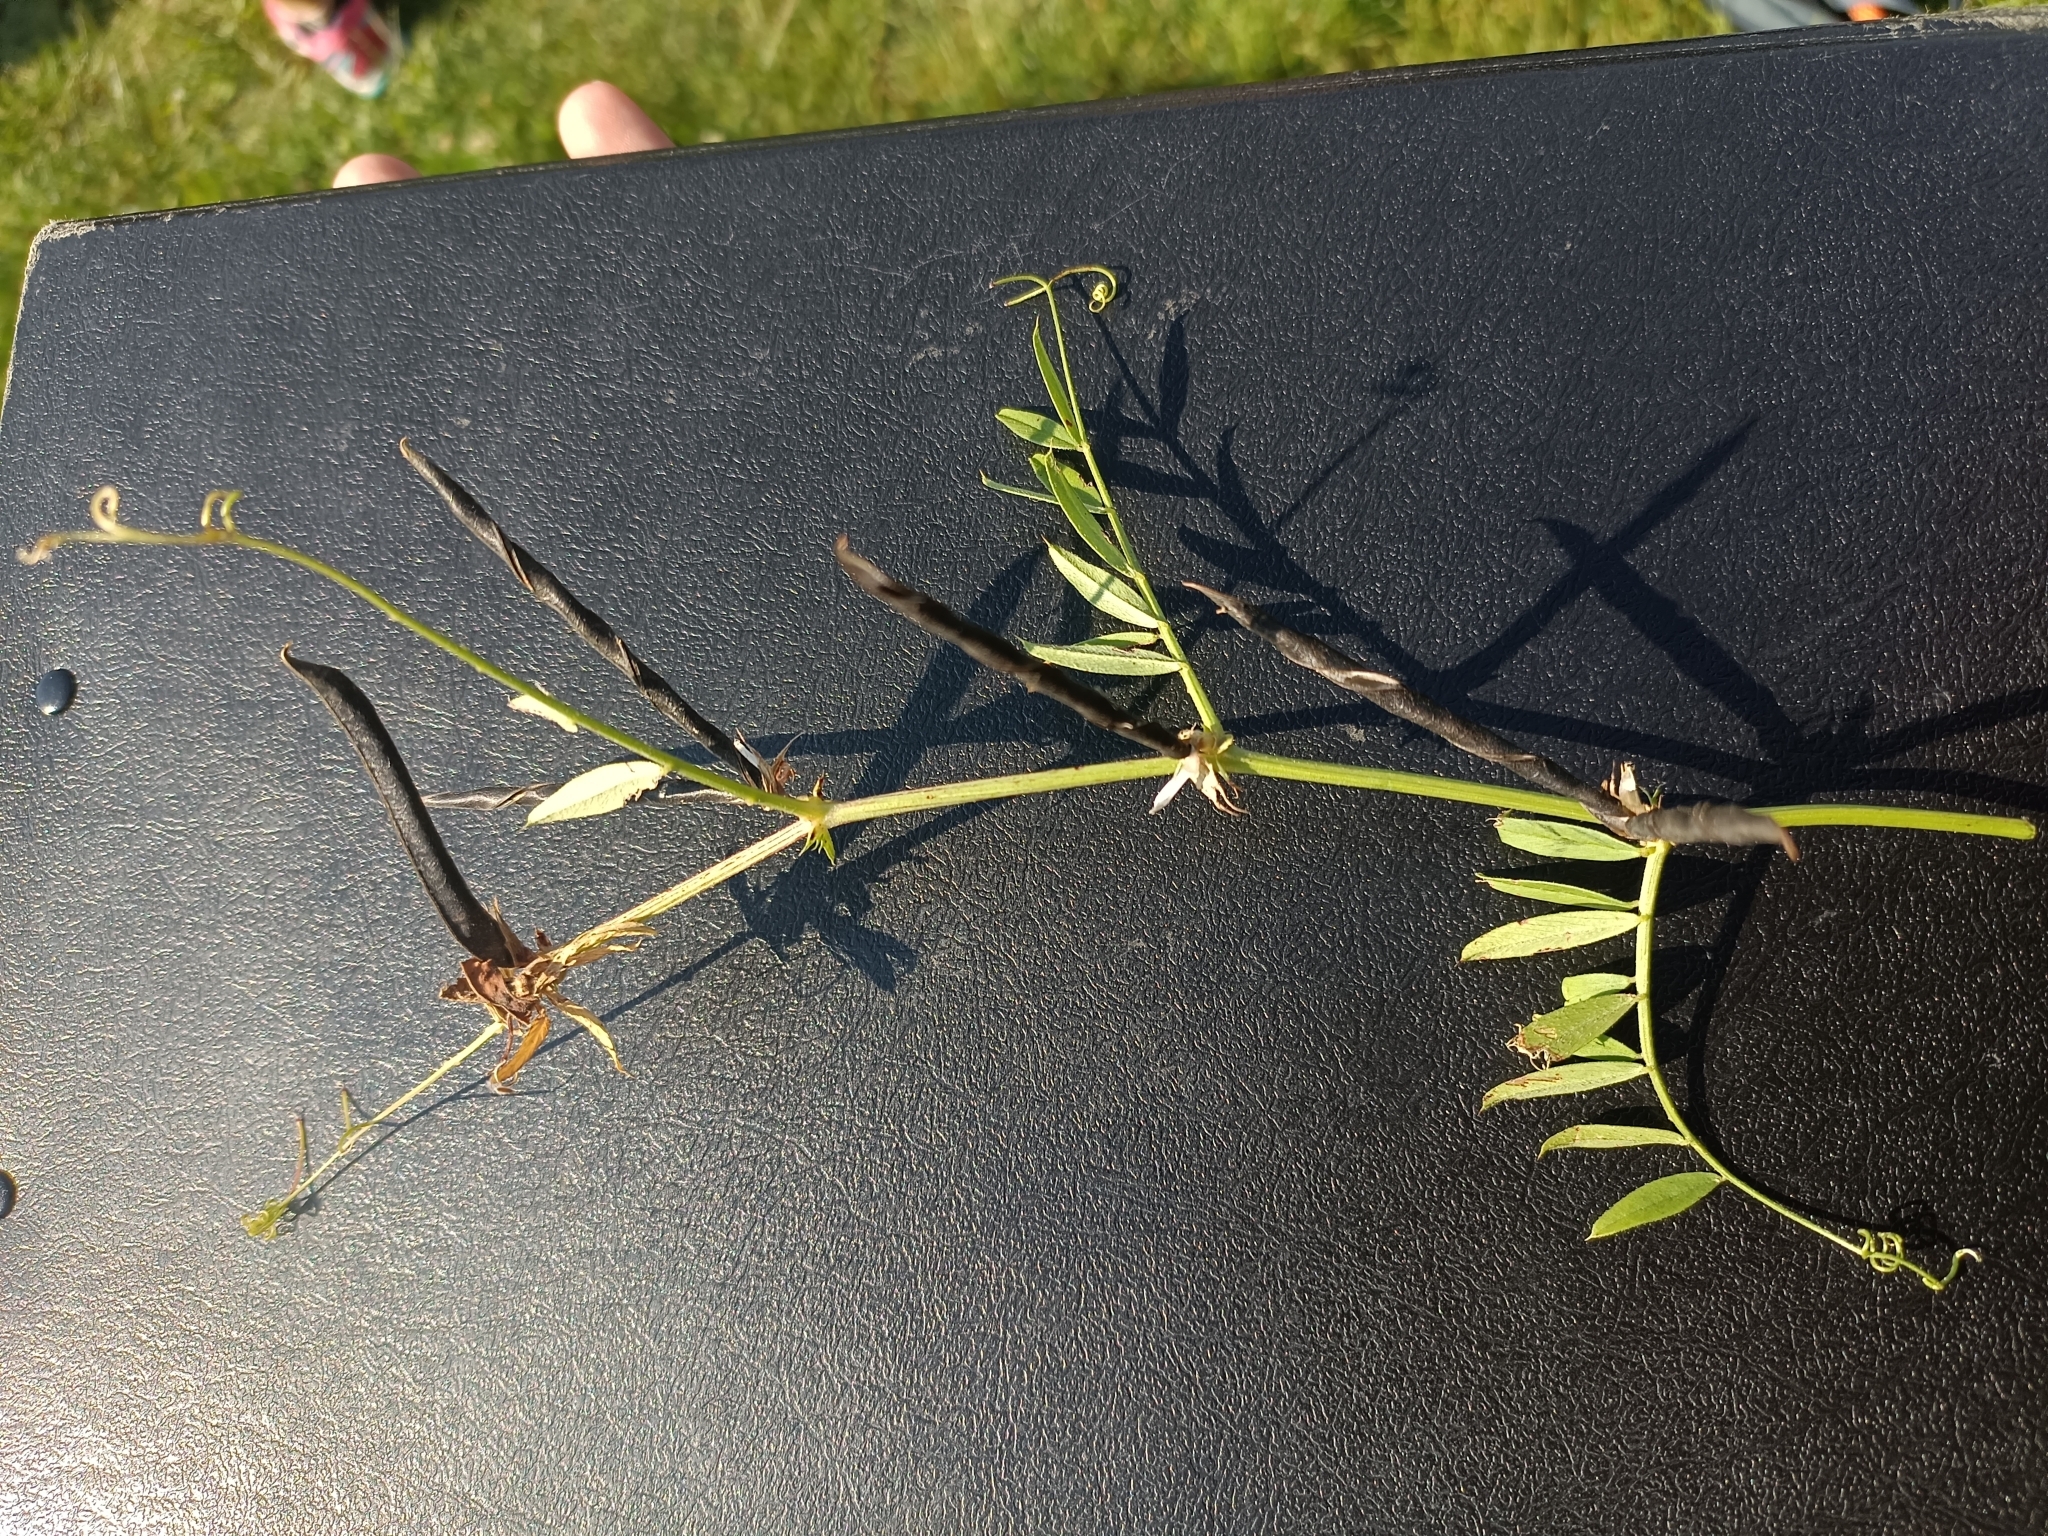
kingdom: Plantae
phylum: Tracheophyta
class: Magnoliopsida
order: Fabales
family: Fabaceae
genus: Vicia
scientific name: Vicia sativa
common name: Garden vetch
